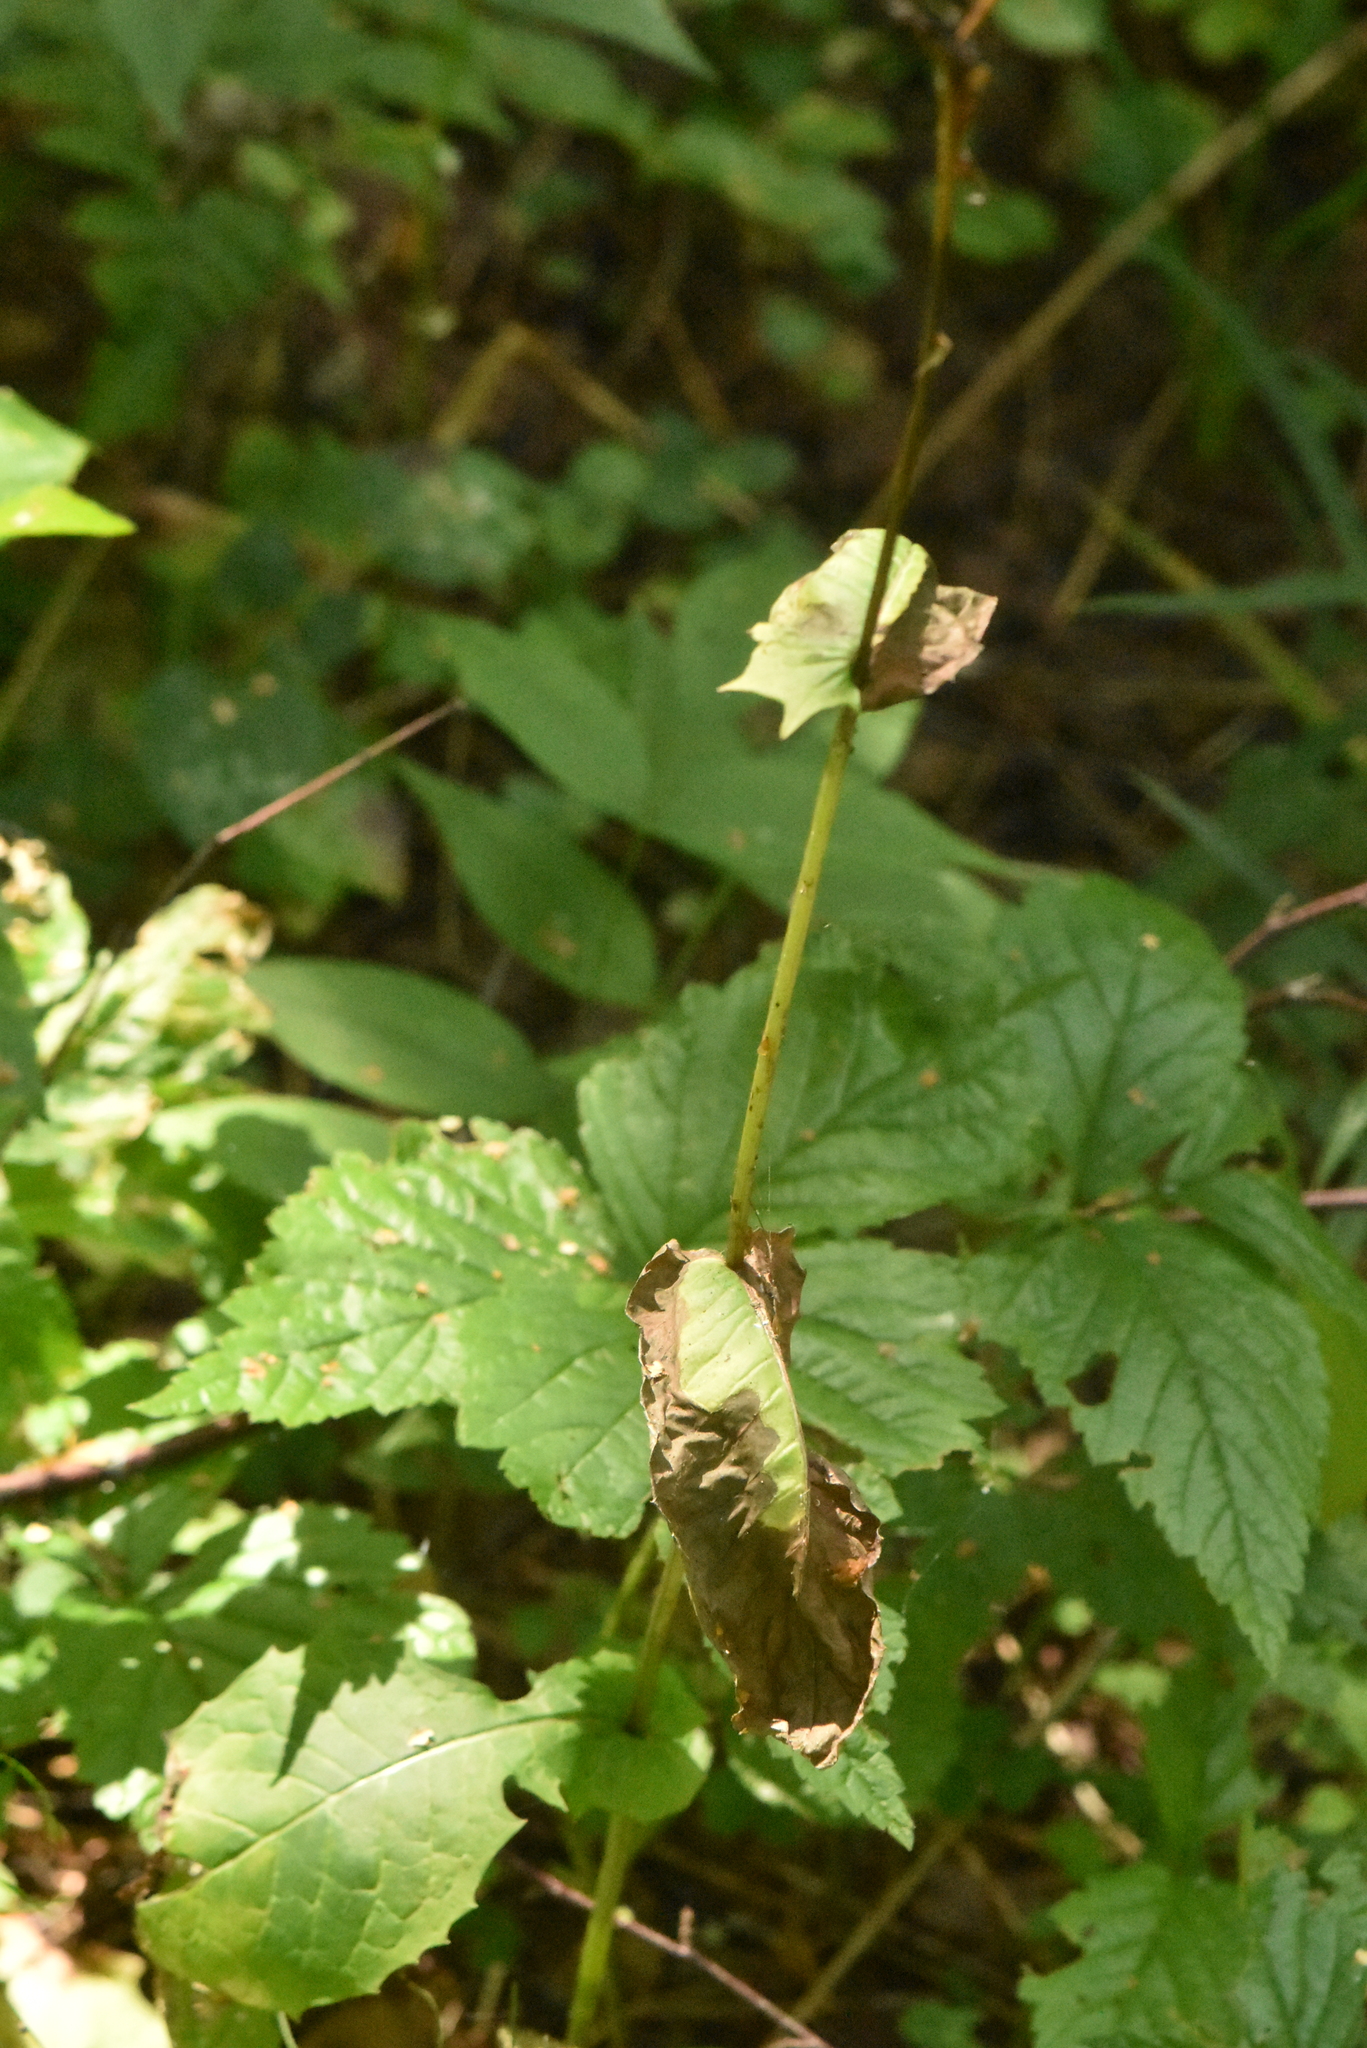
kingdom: Plantae
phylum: Tracheophyta
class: Magnoliopsida
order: Asterales
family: Asteraceae
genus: Crepis
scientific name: Crepis paludosa
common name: Marsh hawk's-beard
